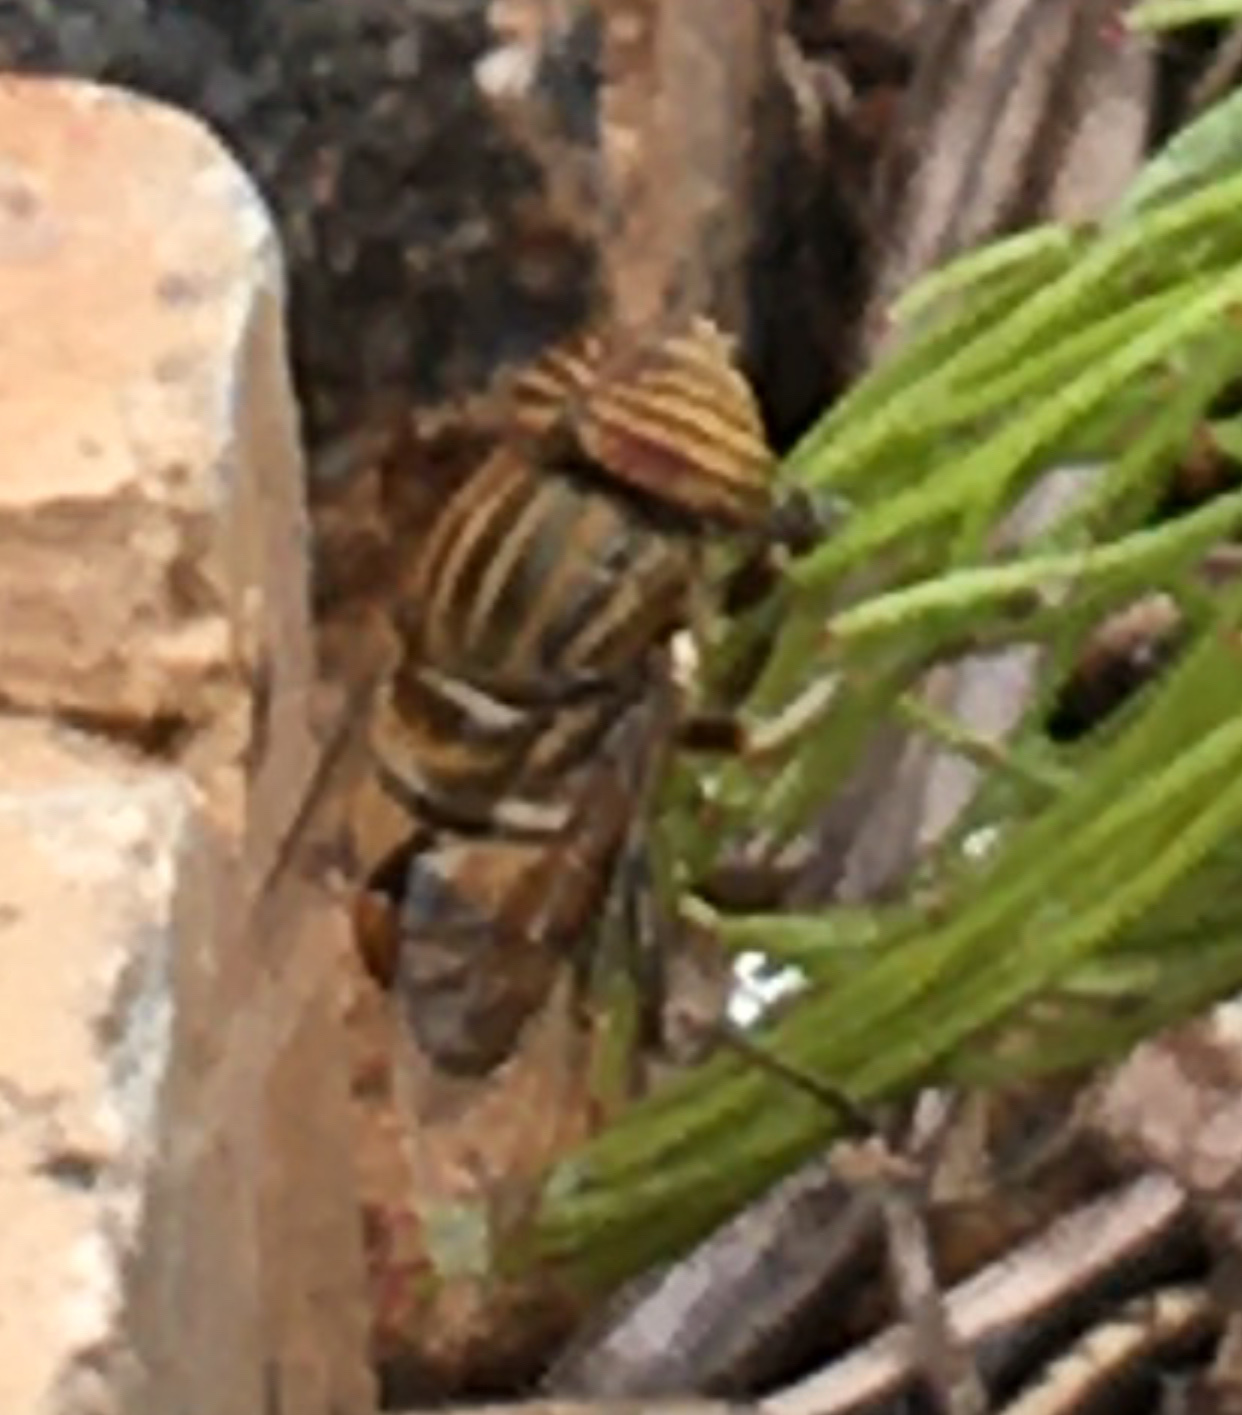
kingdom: Animalia
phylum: Arthropoda
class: Insecta
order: Diptera
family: Syrphidae
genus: Eristalinus
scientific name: Eristalinus barclayi
